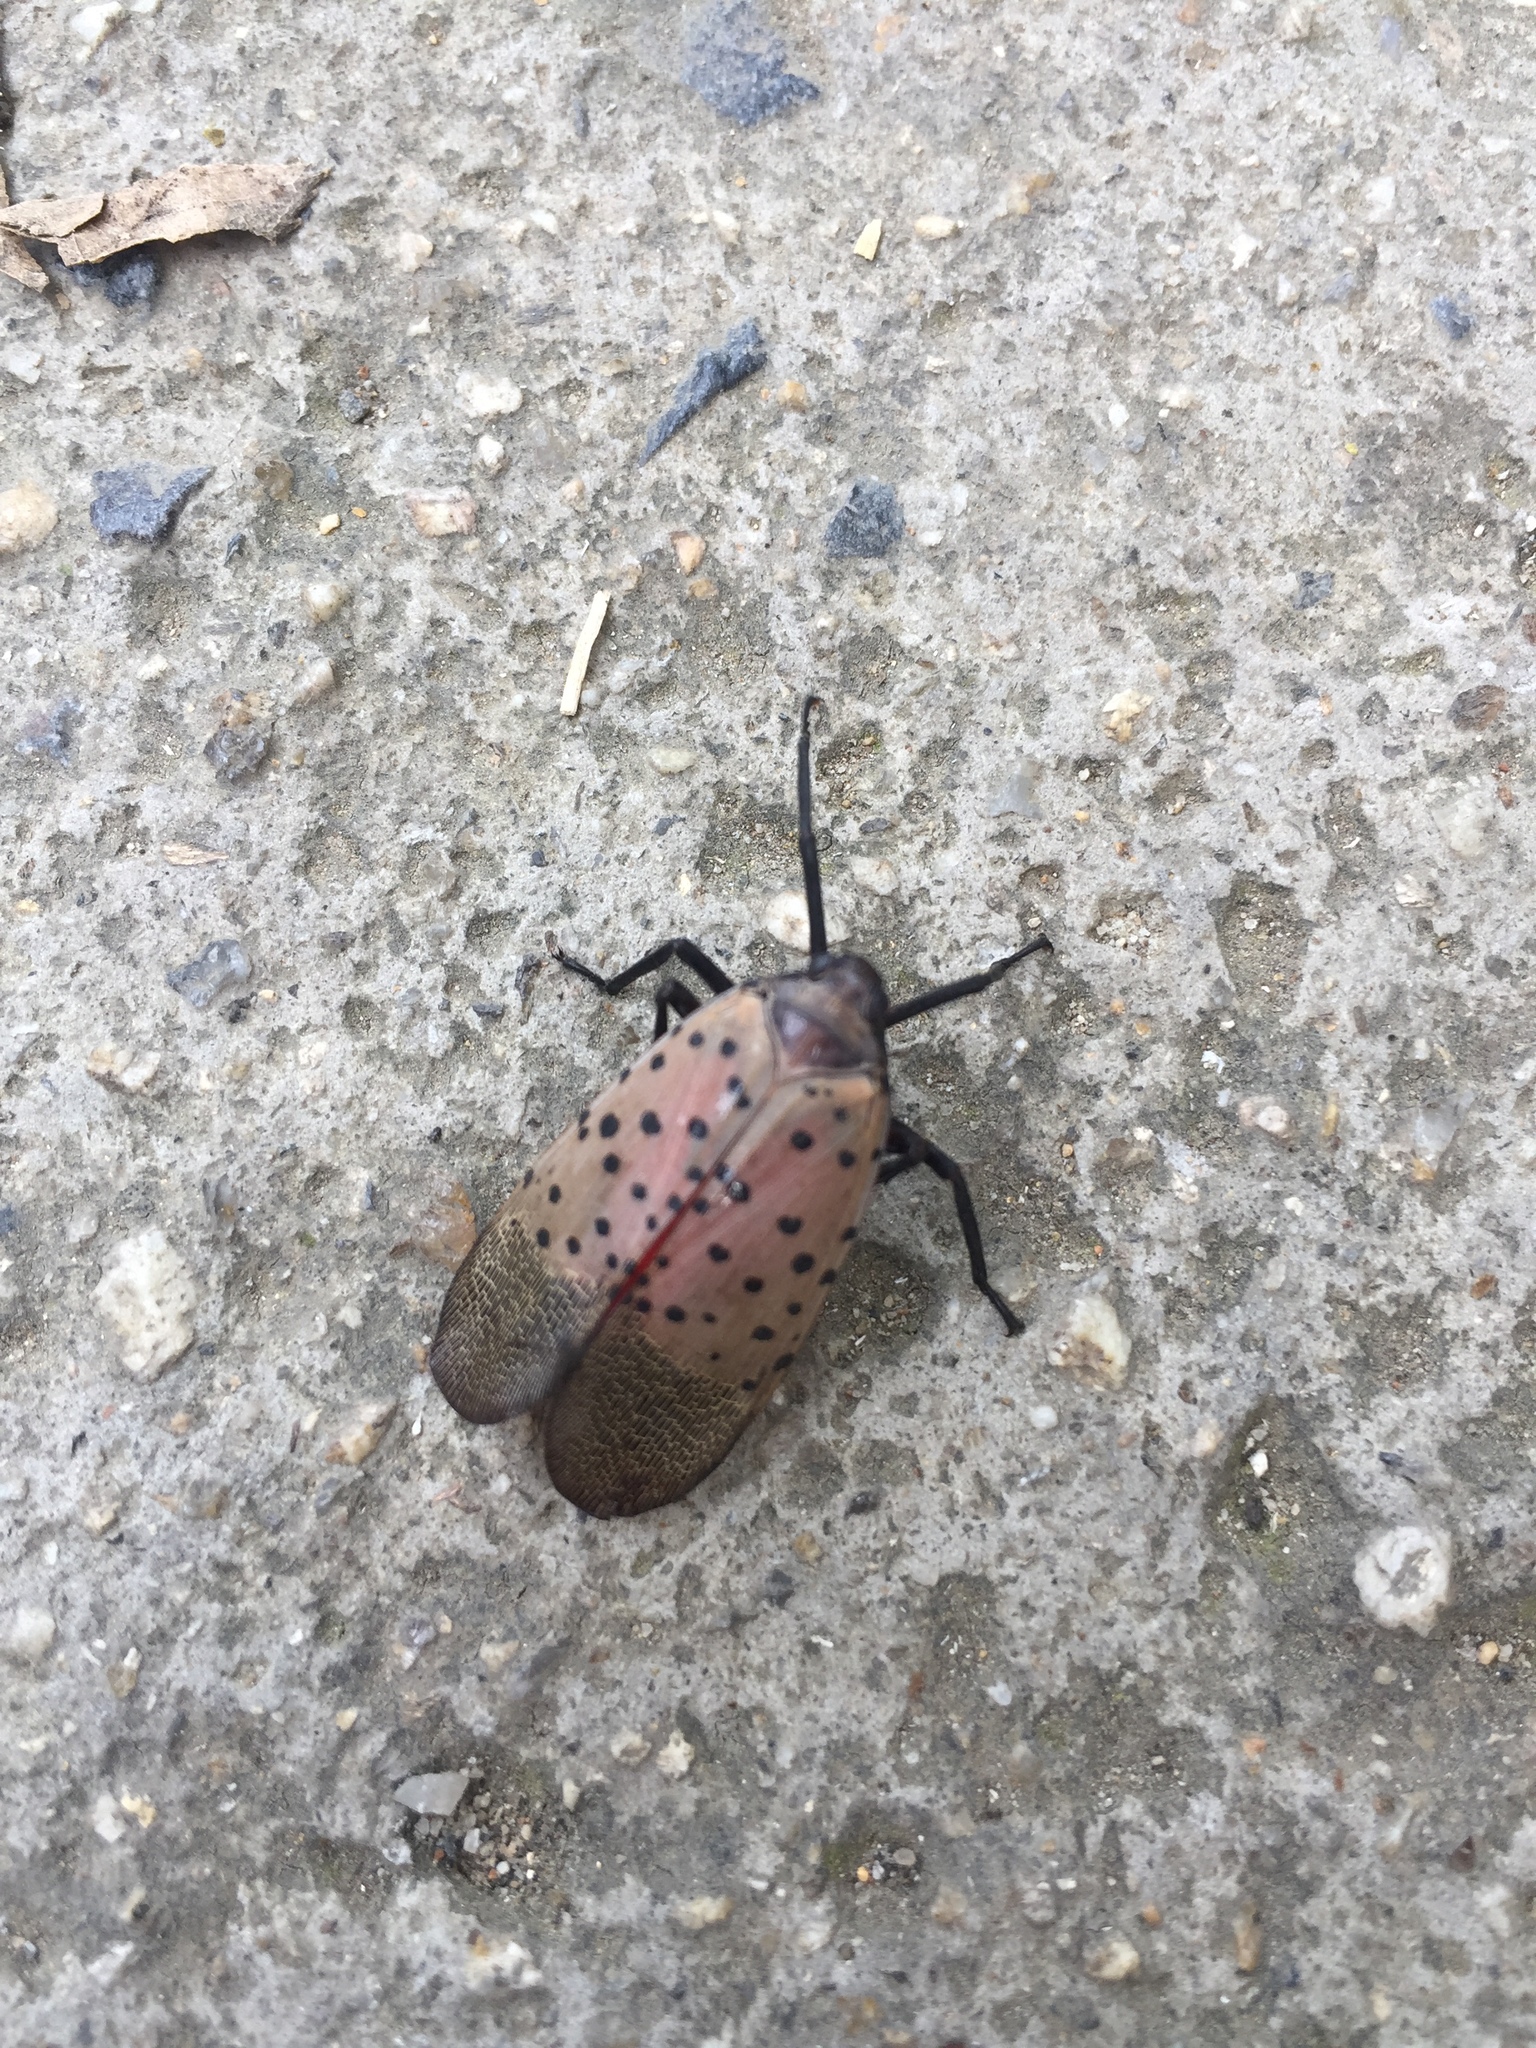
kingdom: Animalia
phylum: Arthropoda
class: Insecta
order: Hemiptera
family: Fulgoridae
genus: Lycorma
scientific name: Lycorma delicatula
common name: Spotted lanternfly
